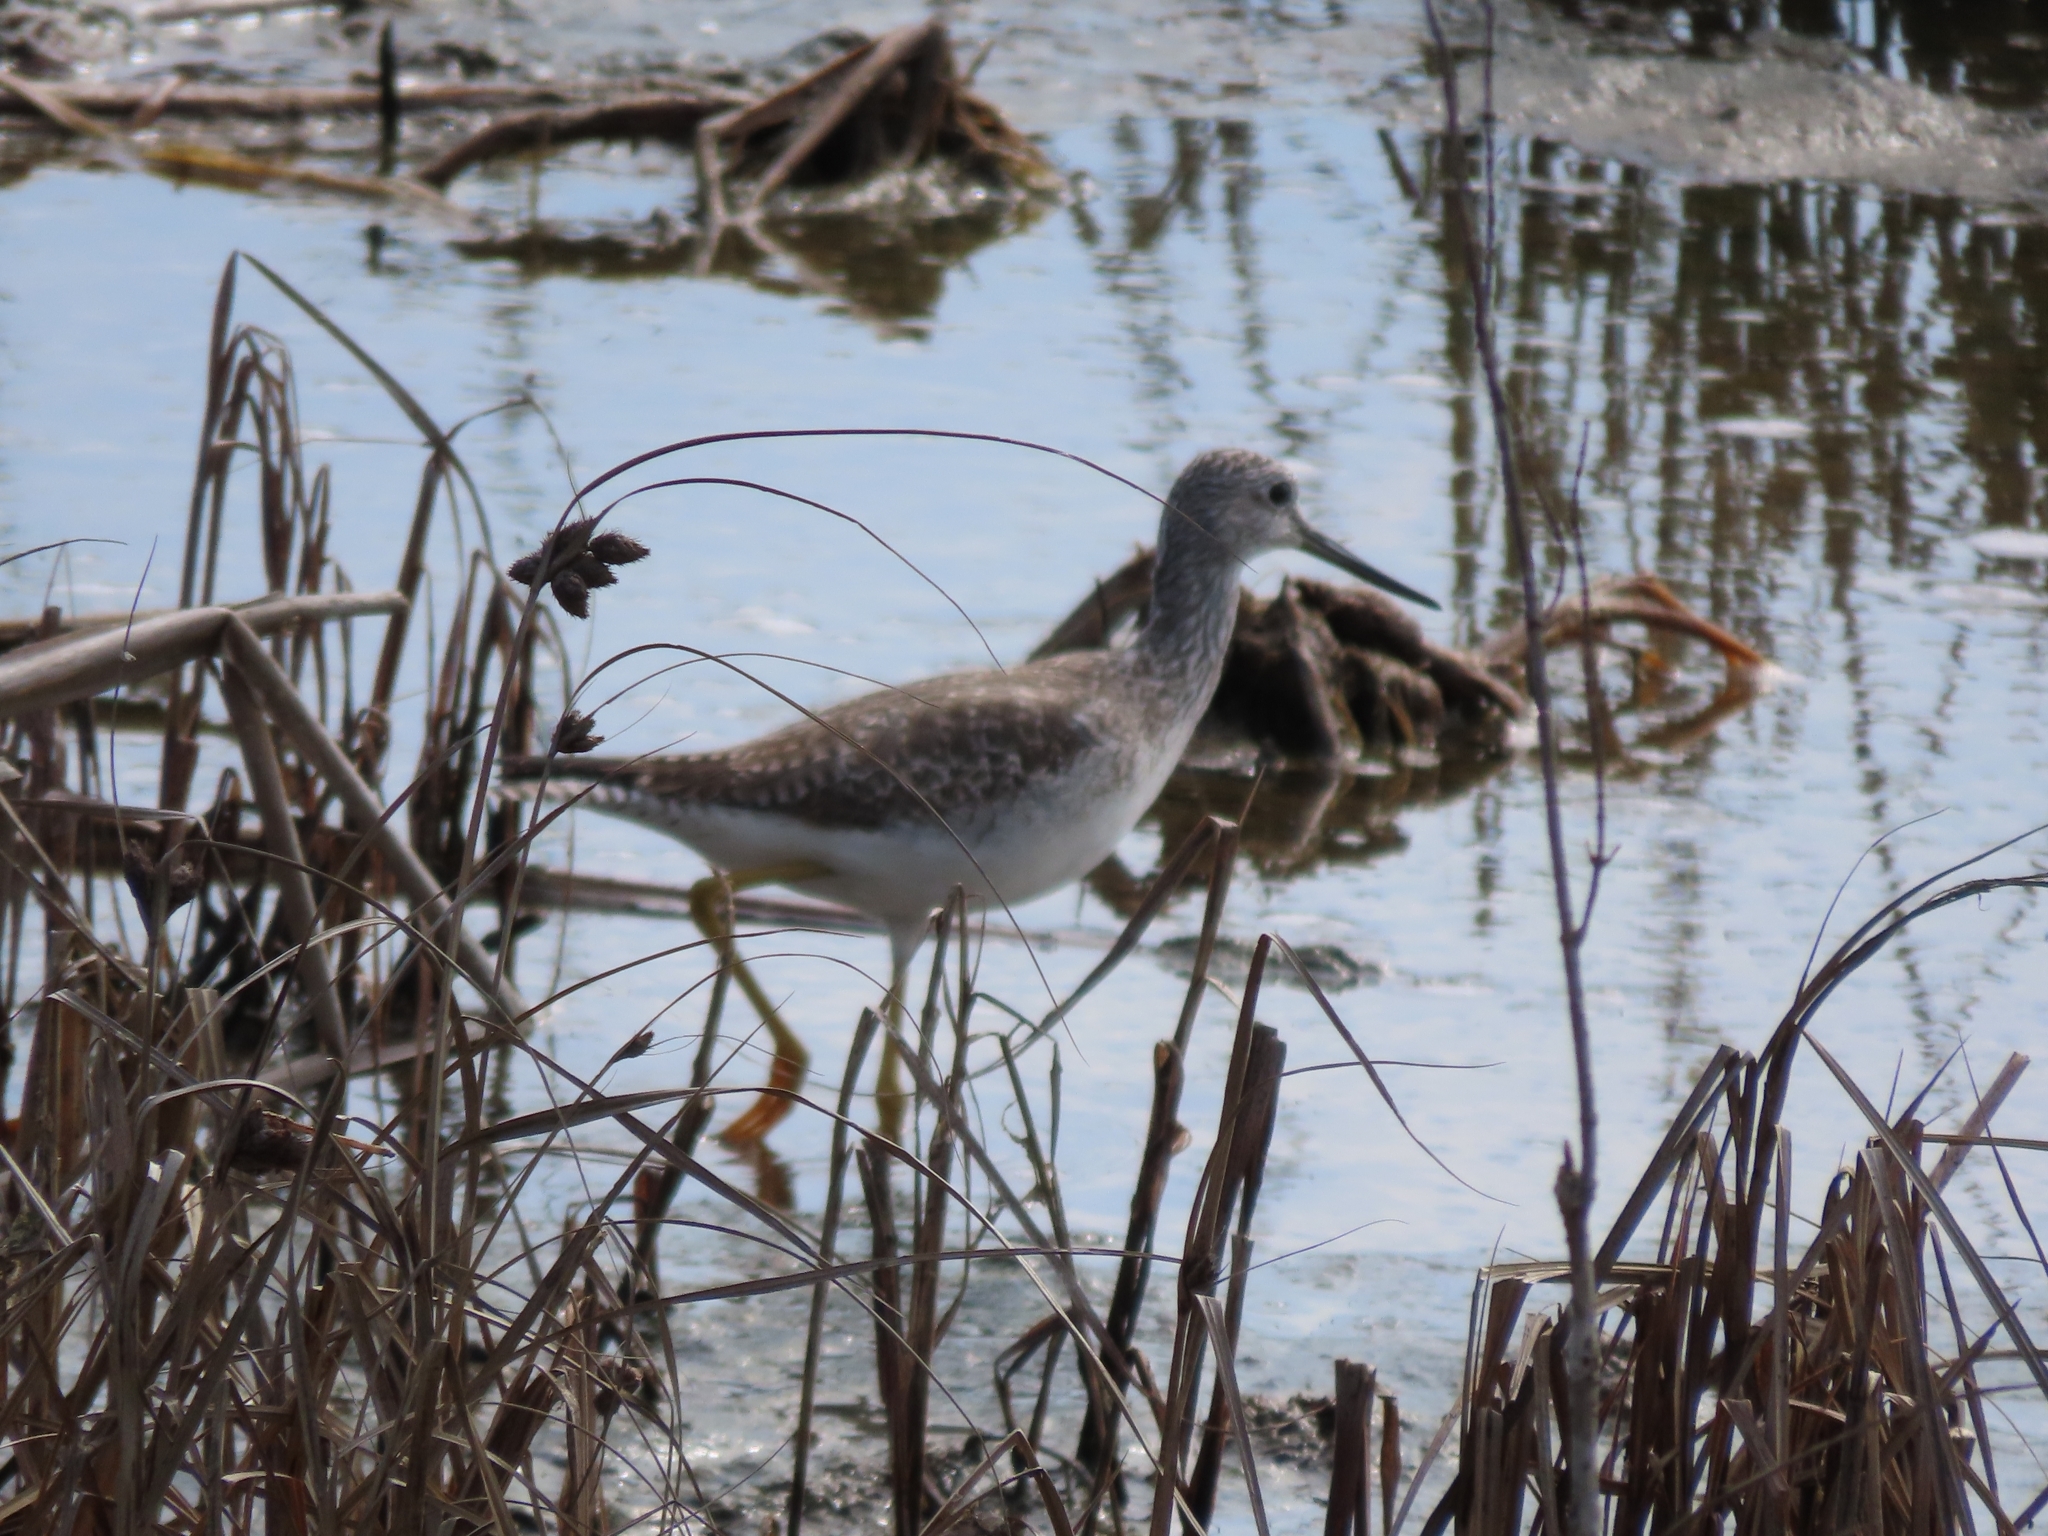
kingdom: Animalia
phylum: Chordata
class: Aves
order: Charadriiformes
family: Scolopacidae
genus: Tringa
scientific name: Tringa melanoleuca
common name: Greater yellowlegs
